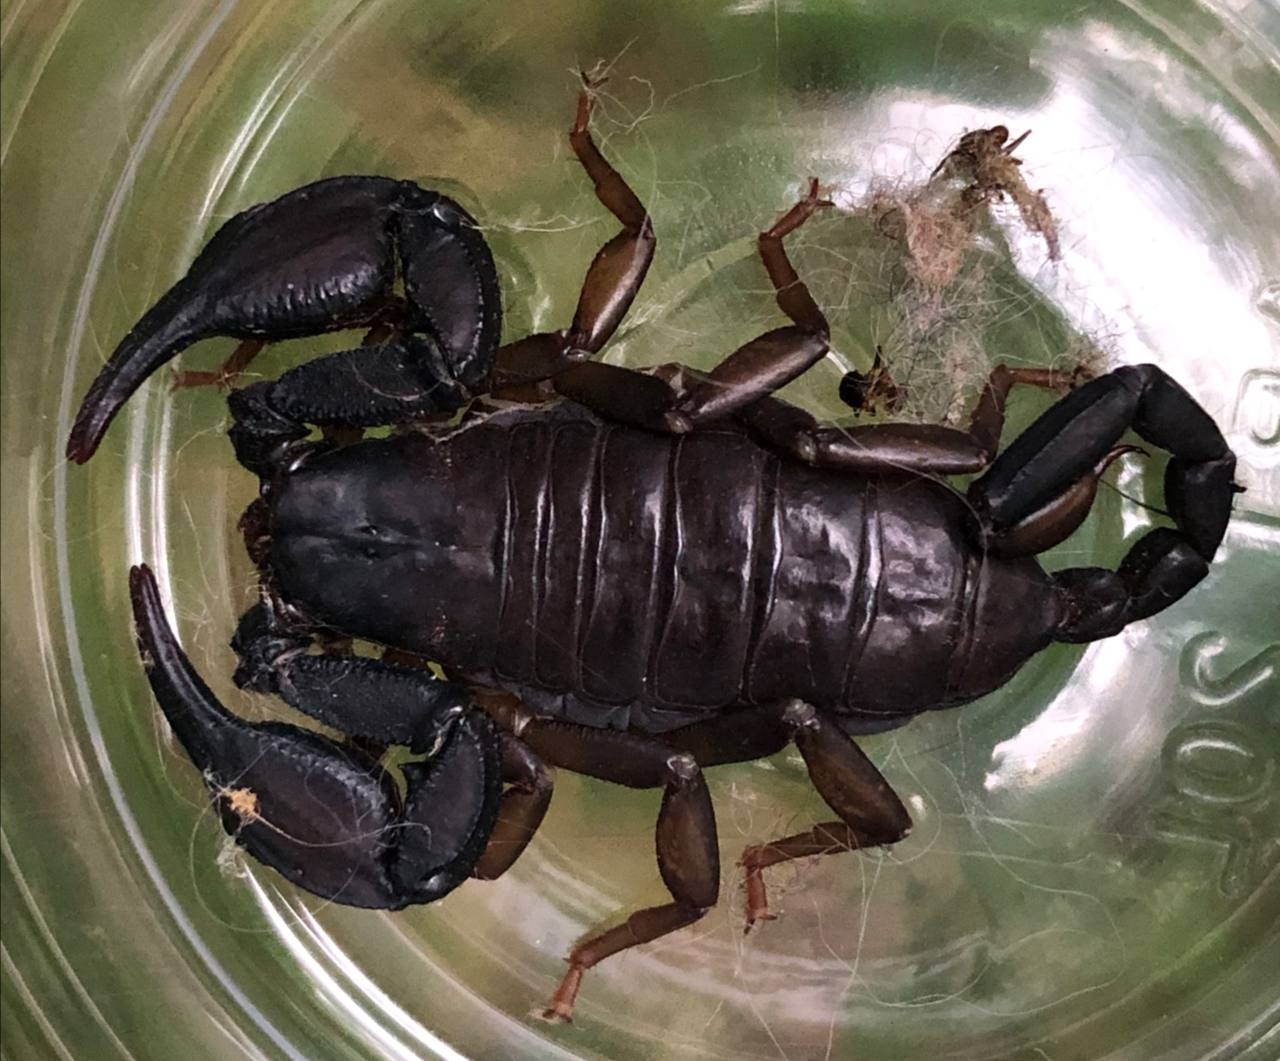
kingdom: Animalia
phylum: Arthropoda
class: Arachnida
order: Scorpiones
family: Euscorpiidae
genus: Euscorpius
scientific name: Euscorpius italicus
